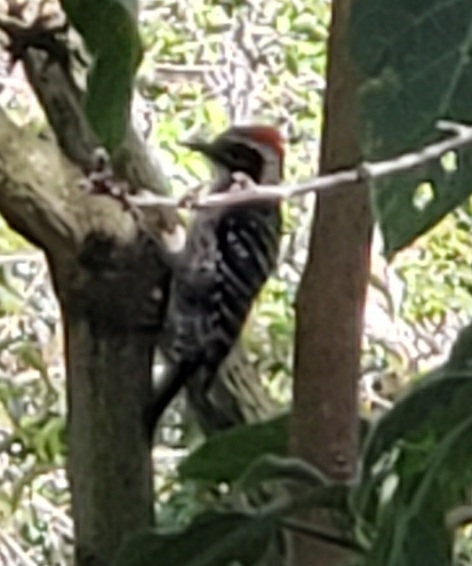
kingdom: Animalia
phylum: Chordata
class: Aves
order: Piciformes
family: Picidae
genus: Dryobates
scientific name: Dryobates nuttallii
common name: Nuttall's woodpecker
